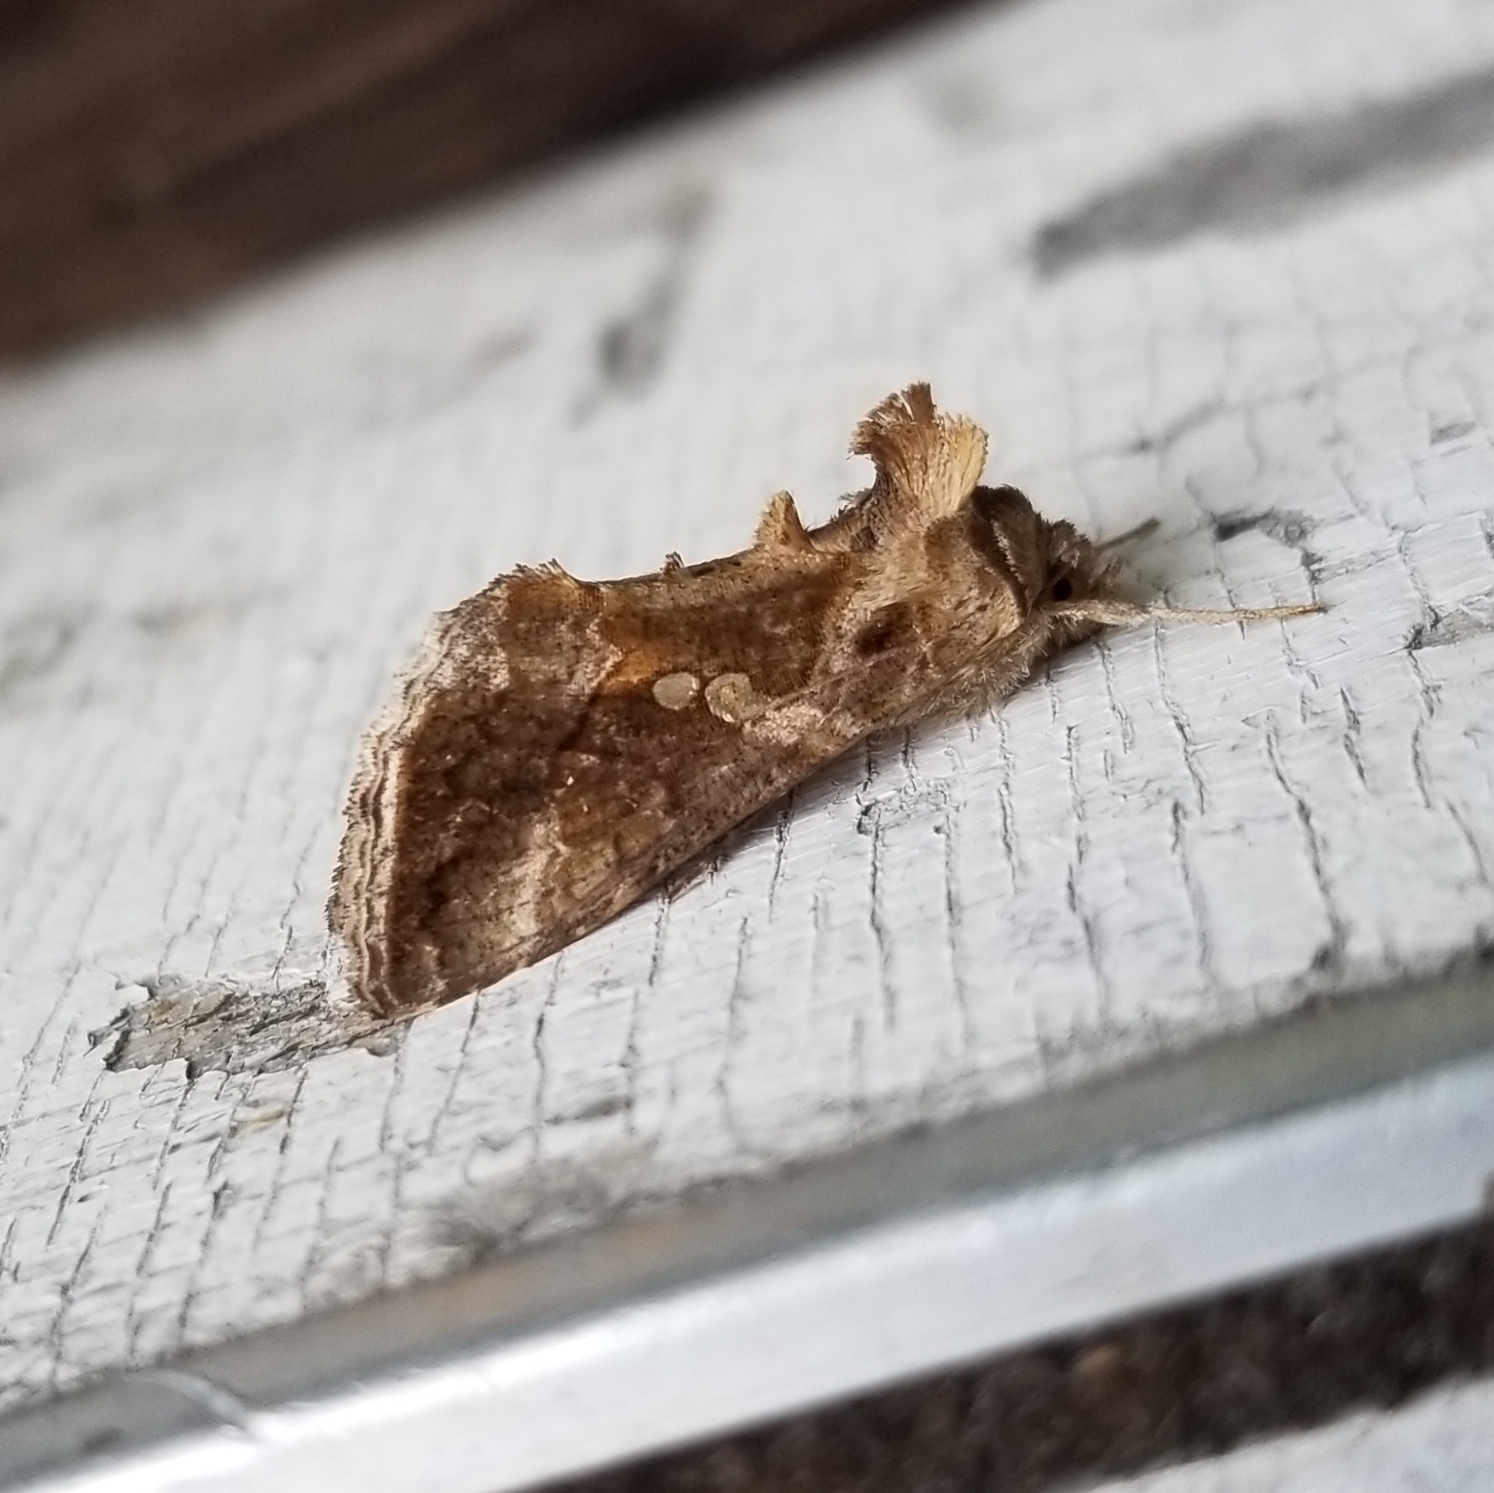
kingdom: Animalia
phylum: Arthropoda
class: Insecta
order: Lepidoptera
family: Noctuidae
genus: Chrysodeixis
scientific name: Chrysodeixis includens
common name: Cutworm moth
